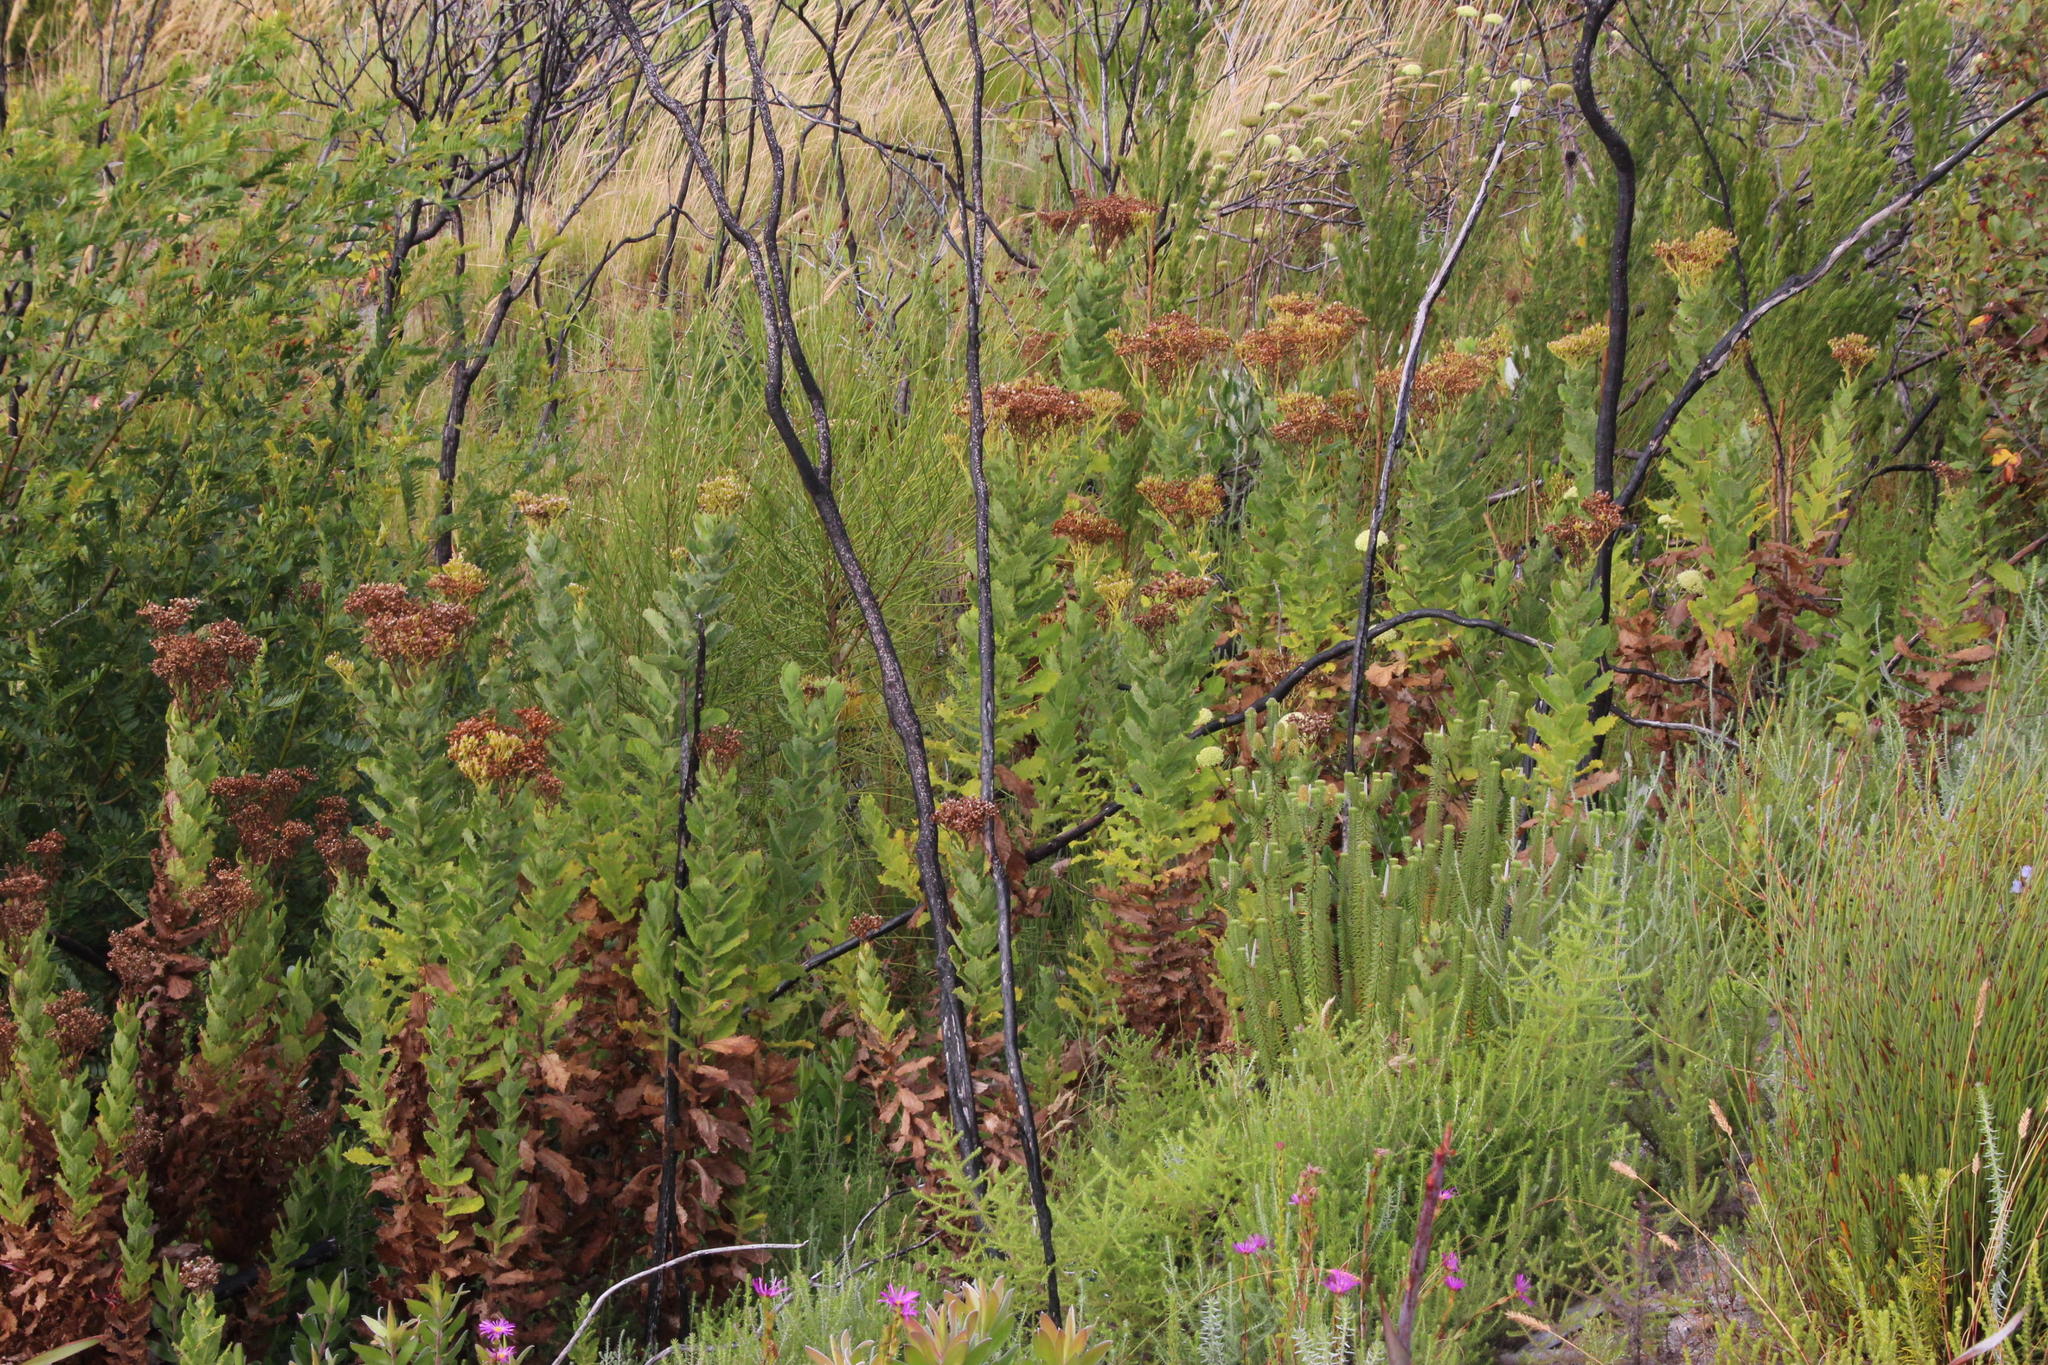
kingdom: Plantae
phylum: Tracheophyta
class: Magnoliopsida
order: Asterales
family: Asteraceae
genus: Senecio
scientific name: Senecio rigidus
